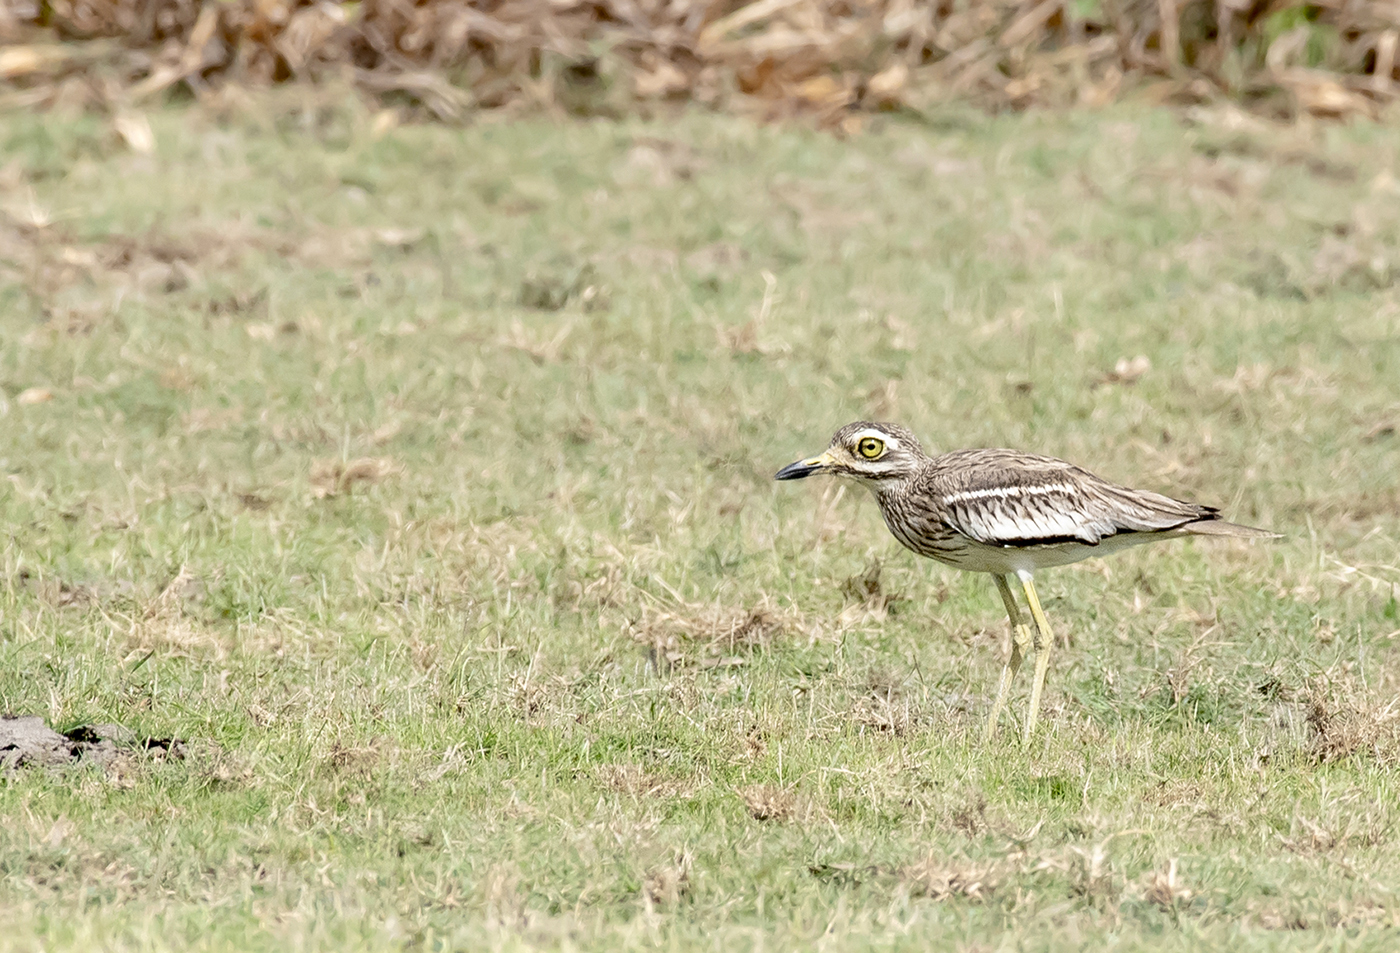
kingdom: Animalia
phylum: Chordata
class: Aves
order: Charadriiformes
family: Burhinidae
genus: Burhinus
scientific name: Burhinus indicus
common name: Indian thick-knee
